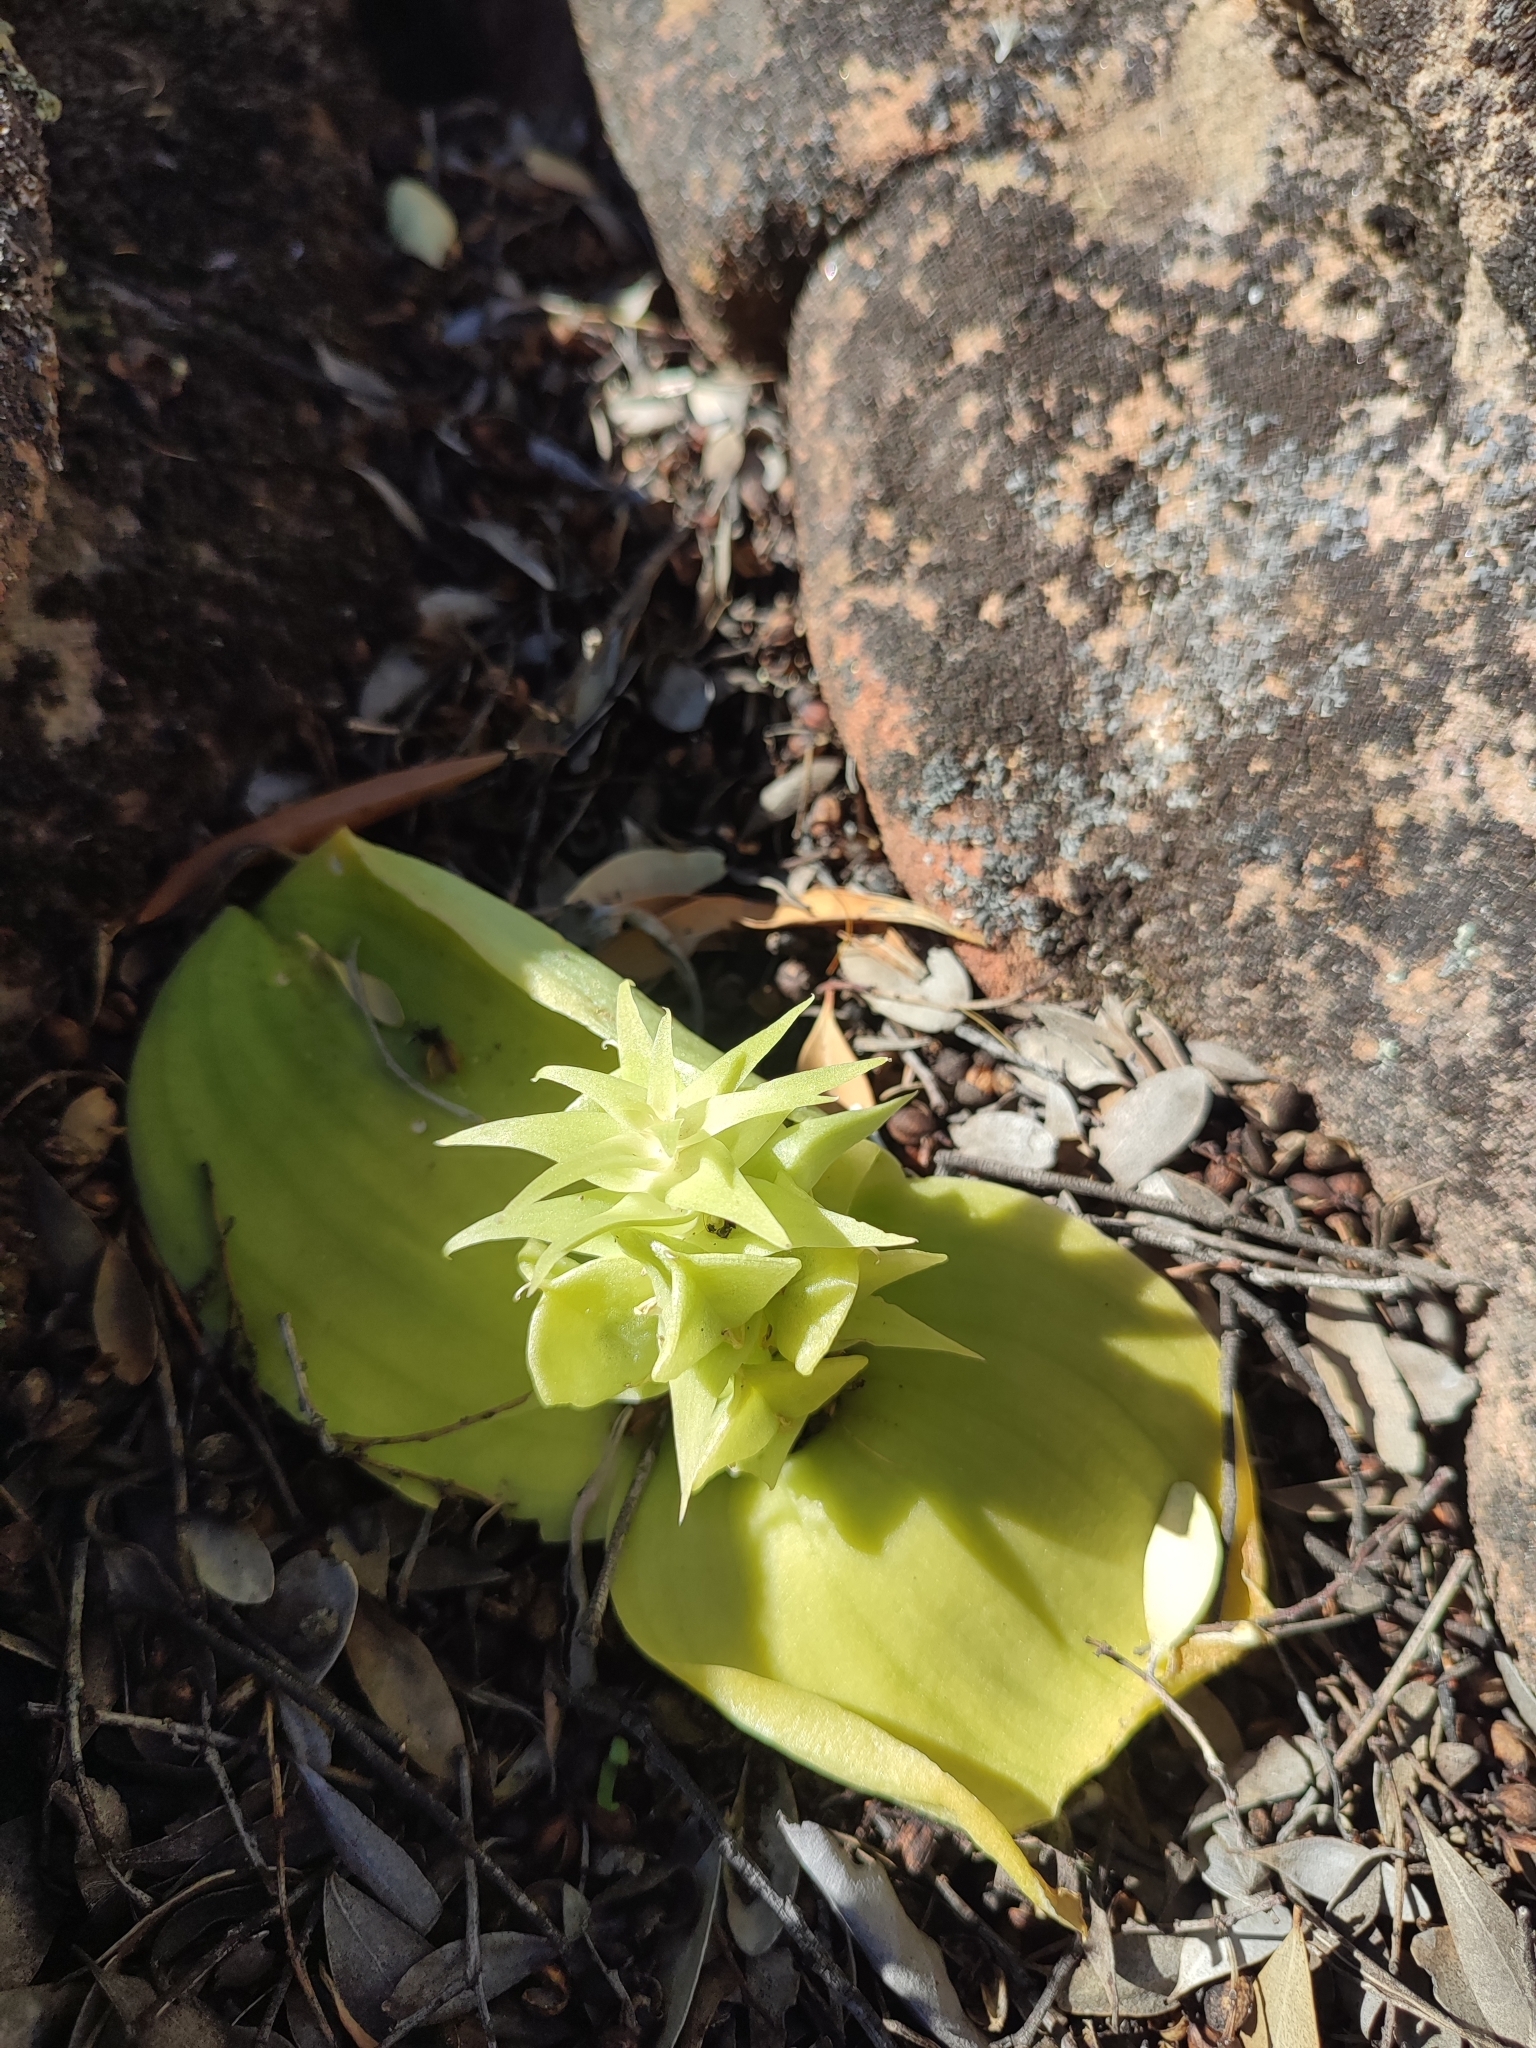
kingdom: Plantae
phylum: Tracheophyta
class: Liliopsida
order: Asparagales
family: Asparagaceae
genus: Massonia
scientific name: Massonia bifolia
